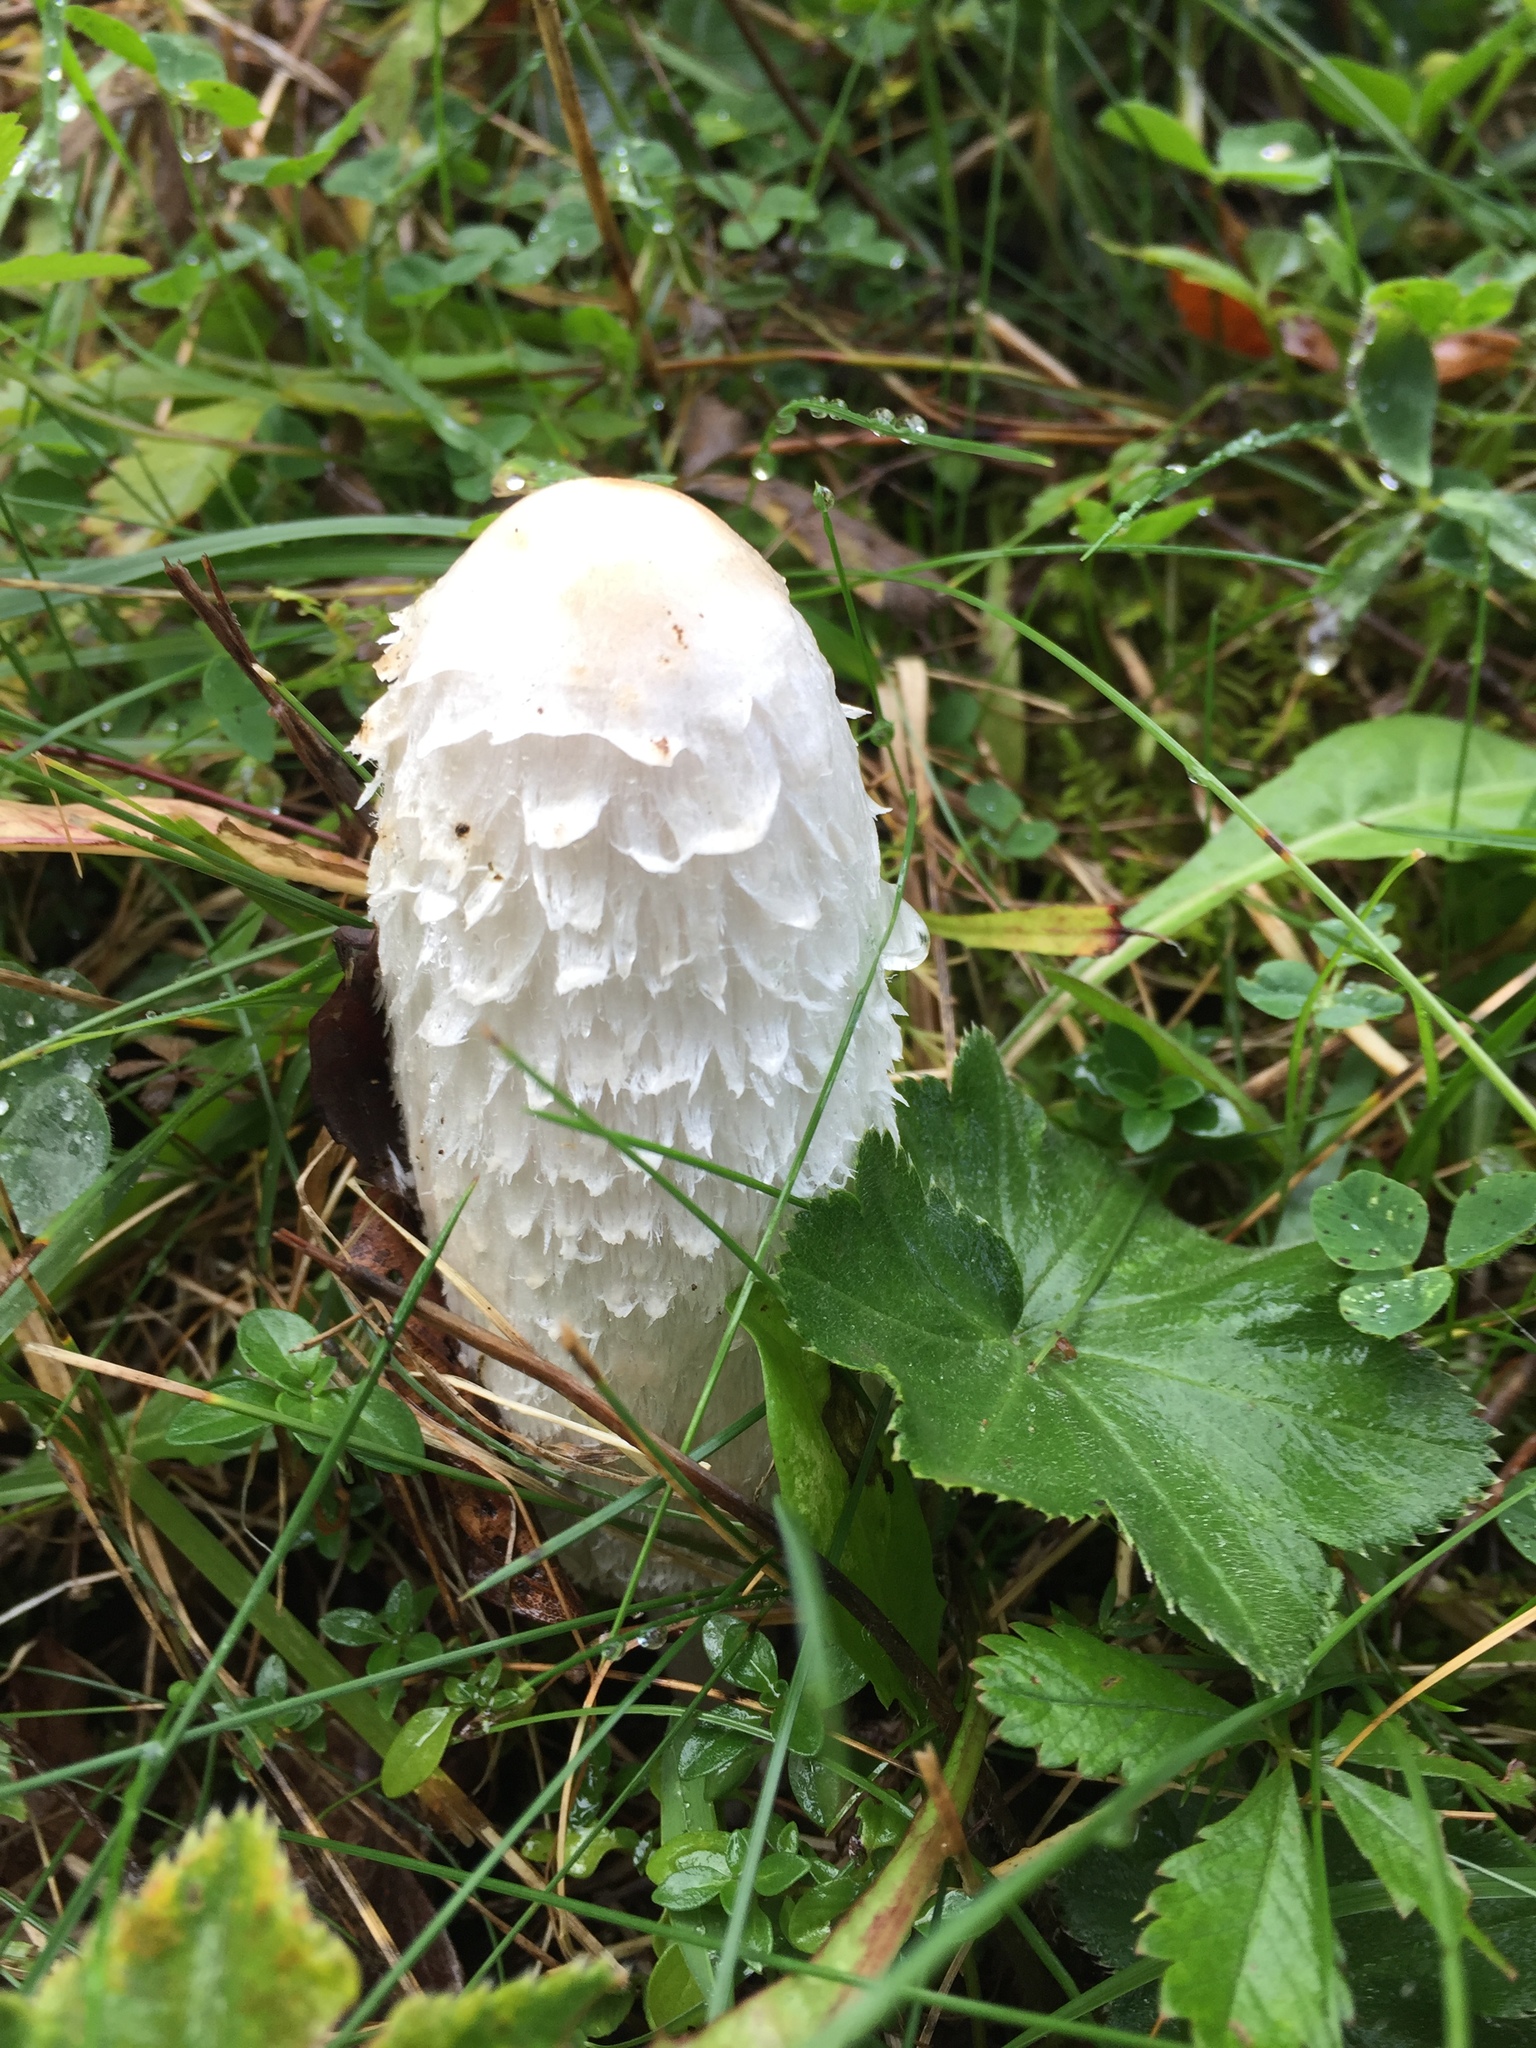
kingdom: Fungi
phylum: Basidiomycota
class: Agaricomycetes
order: Agaricales
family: Agaricaceae
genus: Coprinus
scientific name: Coprinus comatus
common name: Lawyer's wig
